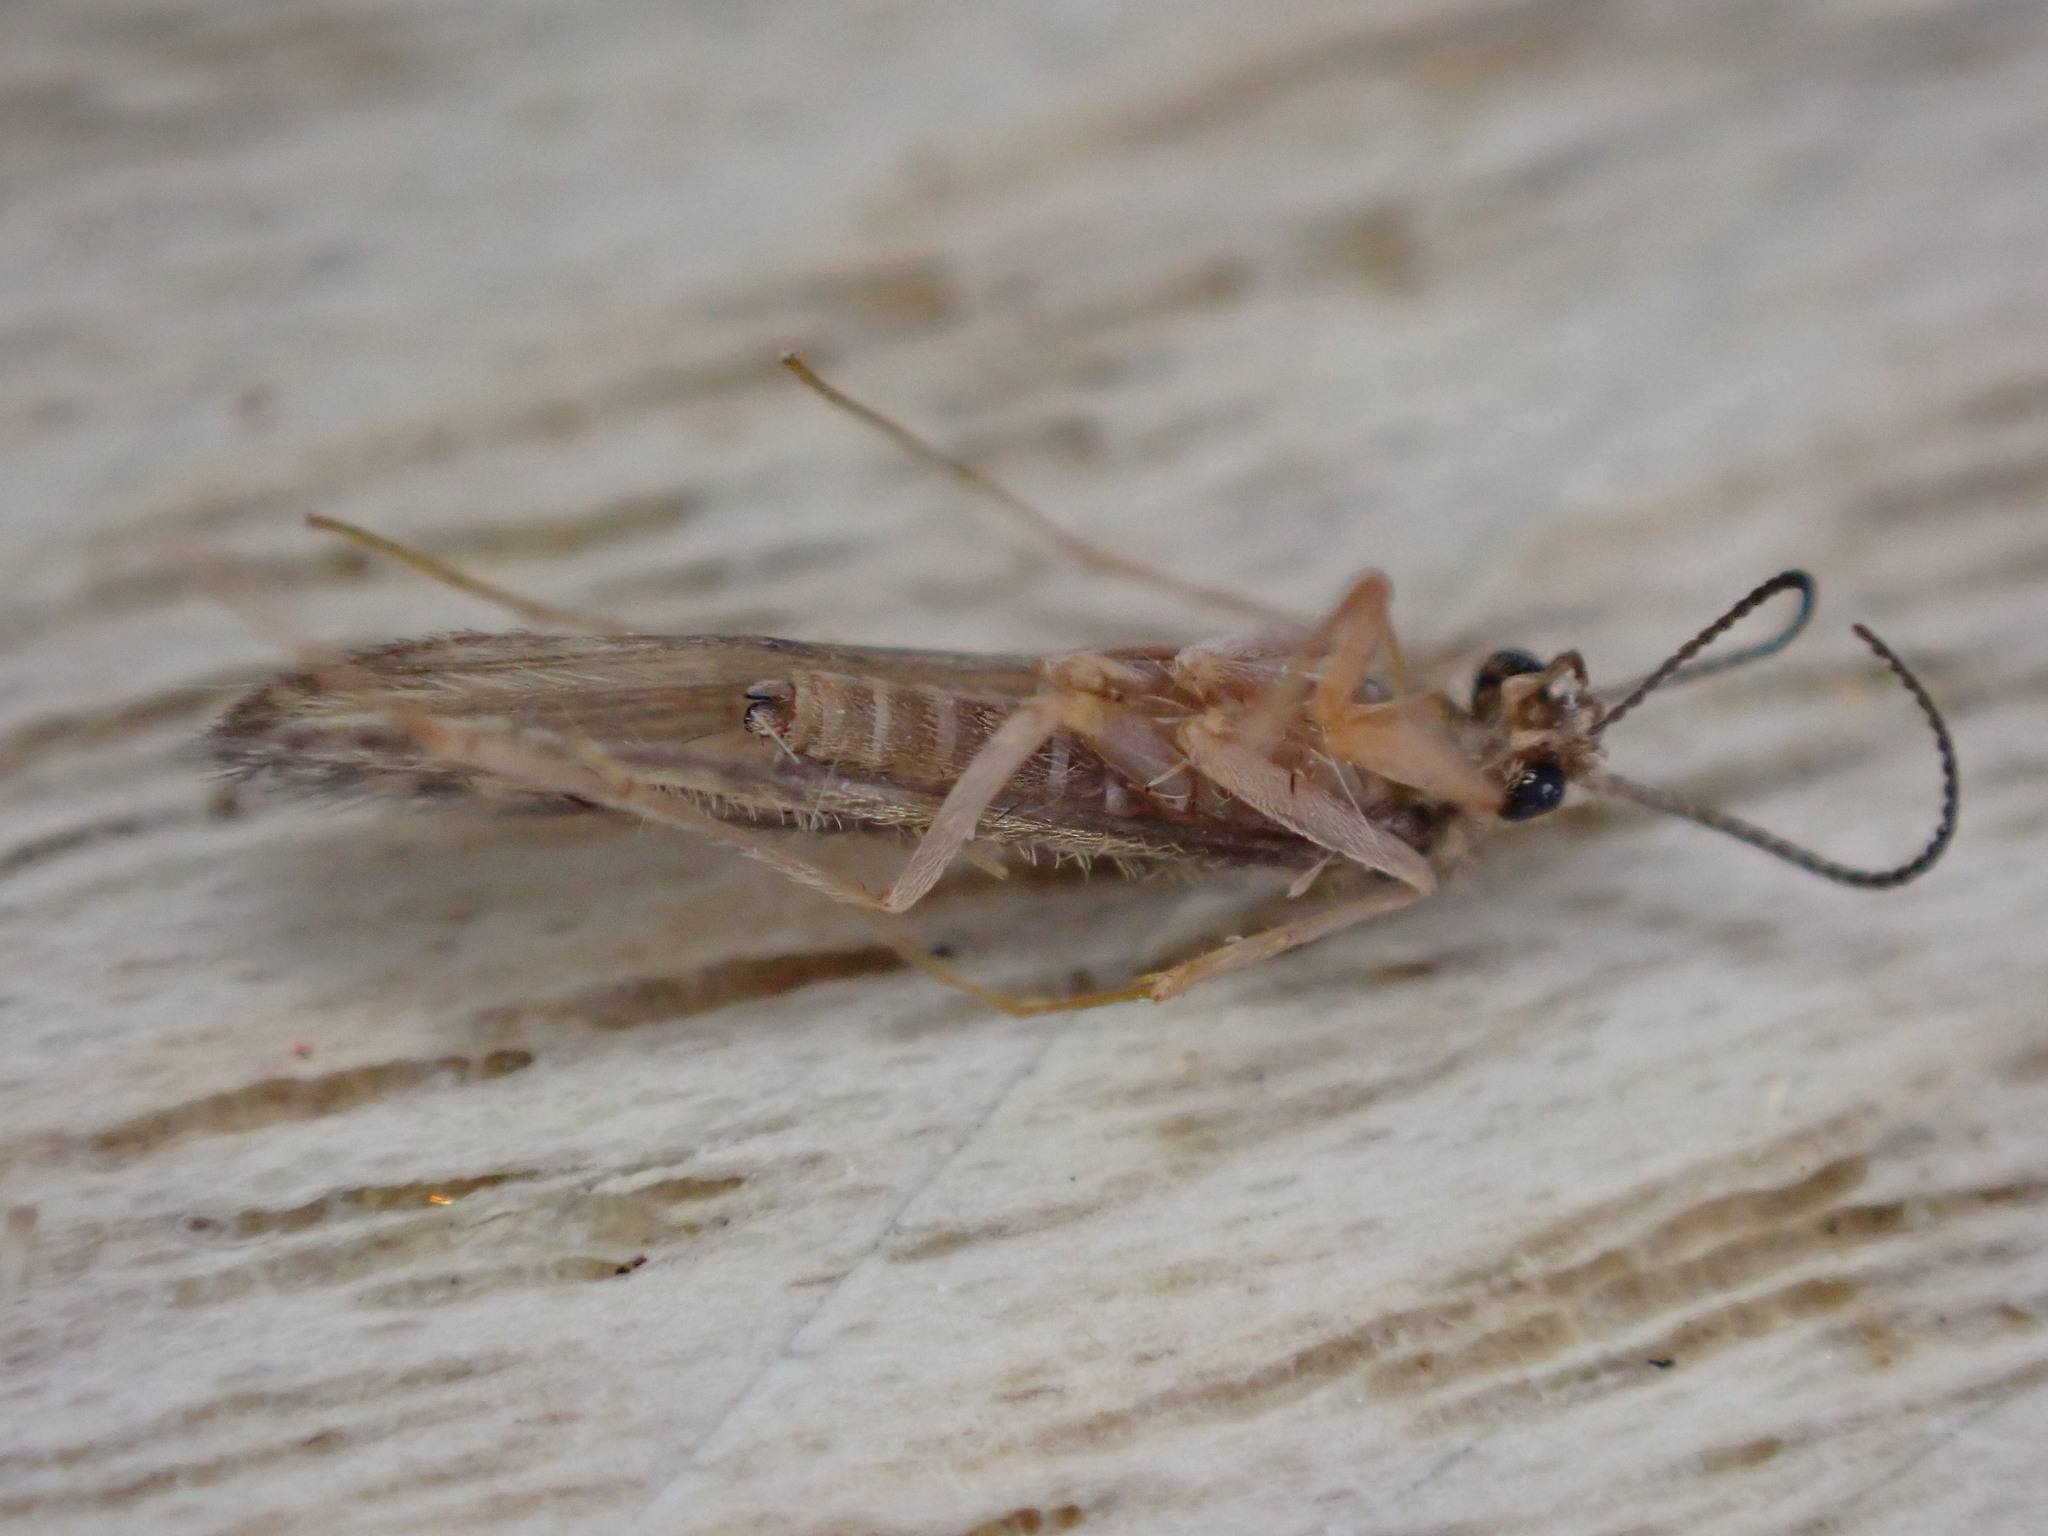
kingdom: Animalia
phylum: Arthropoda
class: Insecta
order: Trichoptera
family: Hydroptilidae
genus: Agraylea
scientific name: Agraylea sexmaculata
